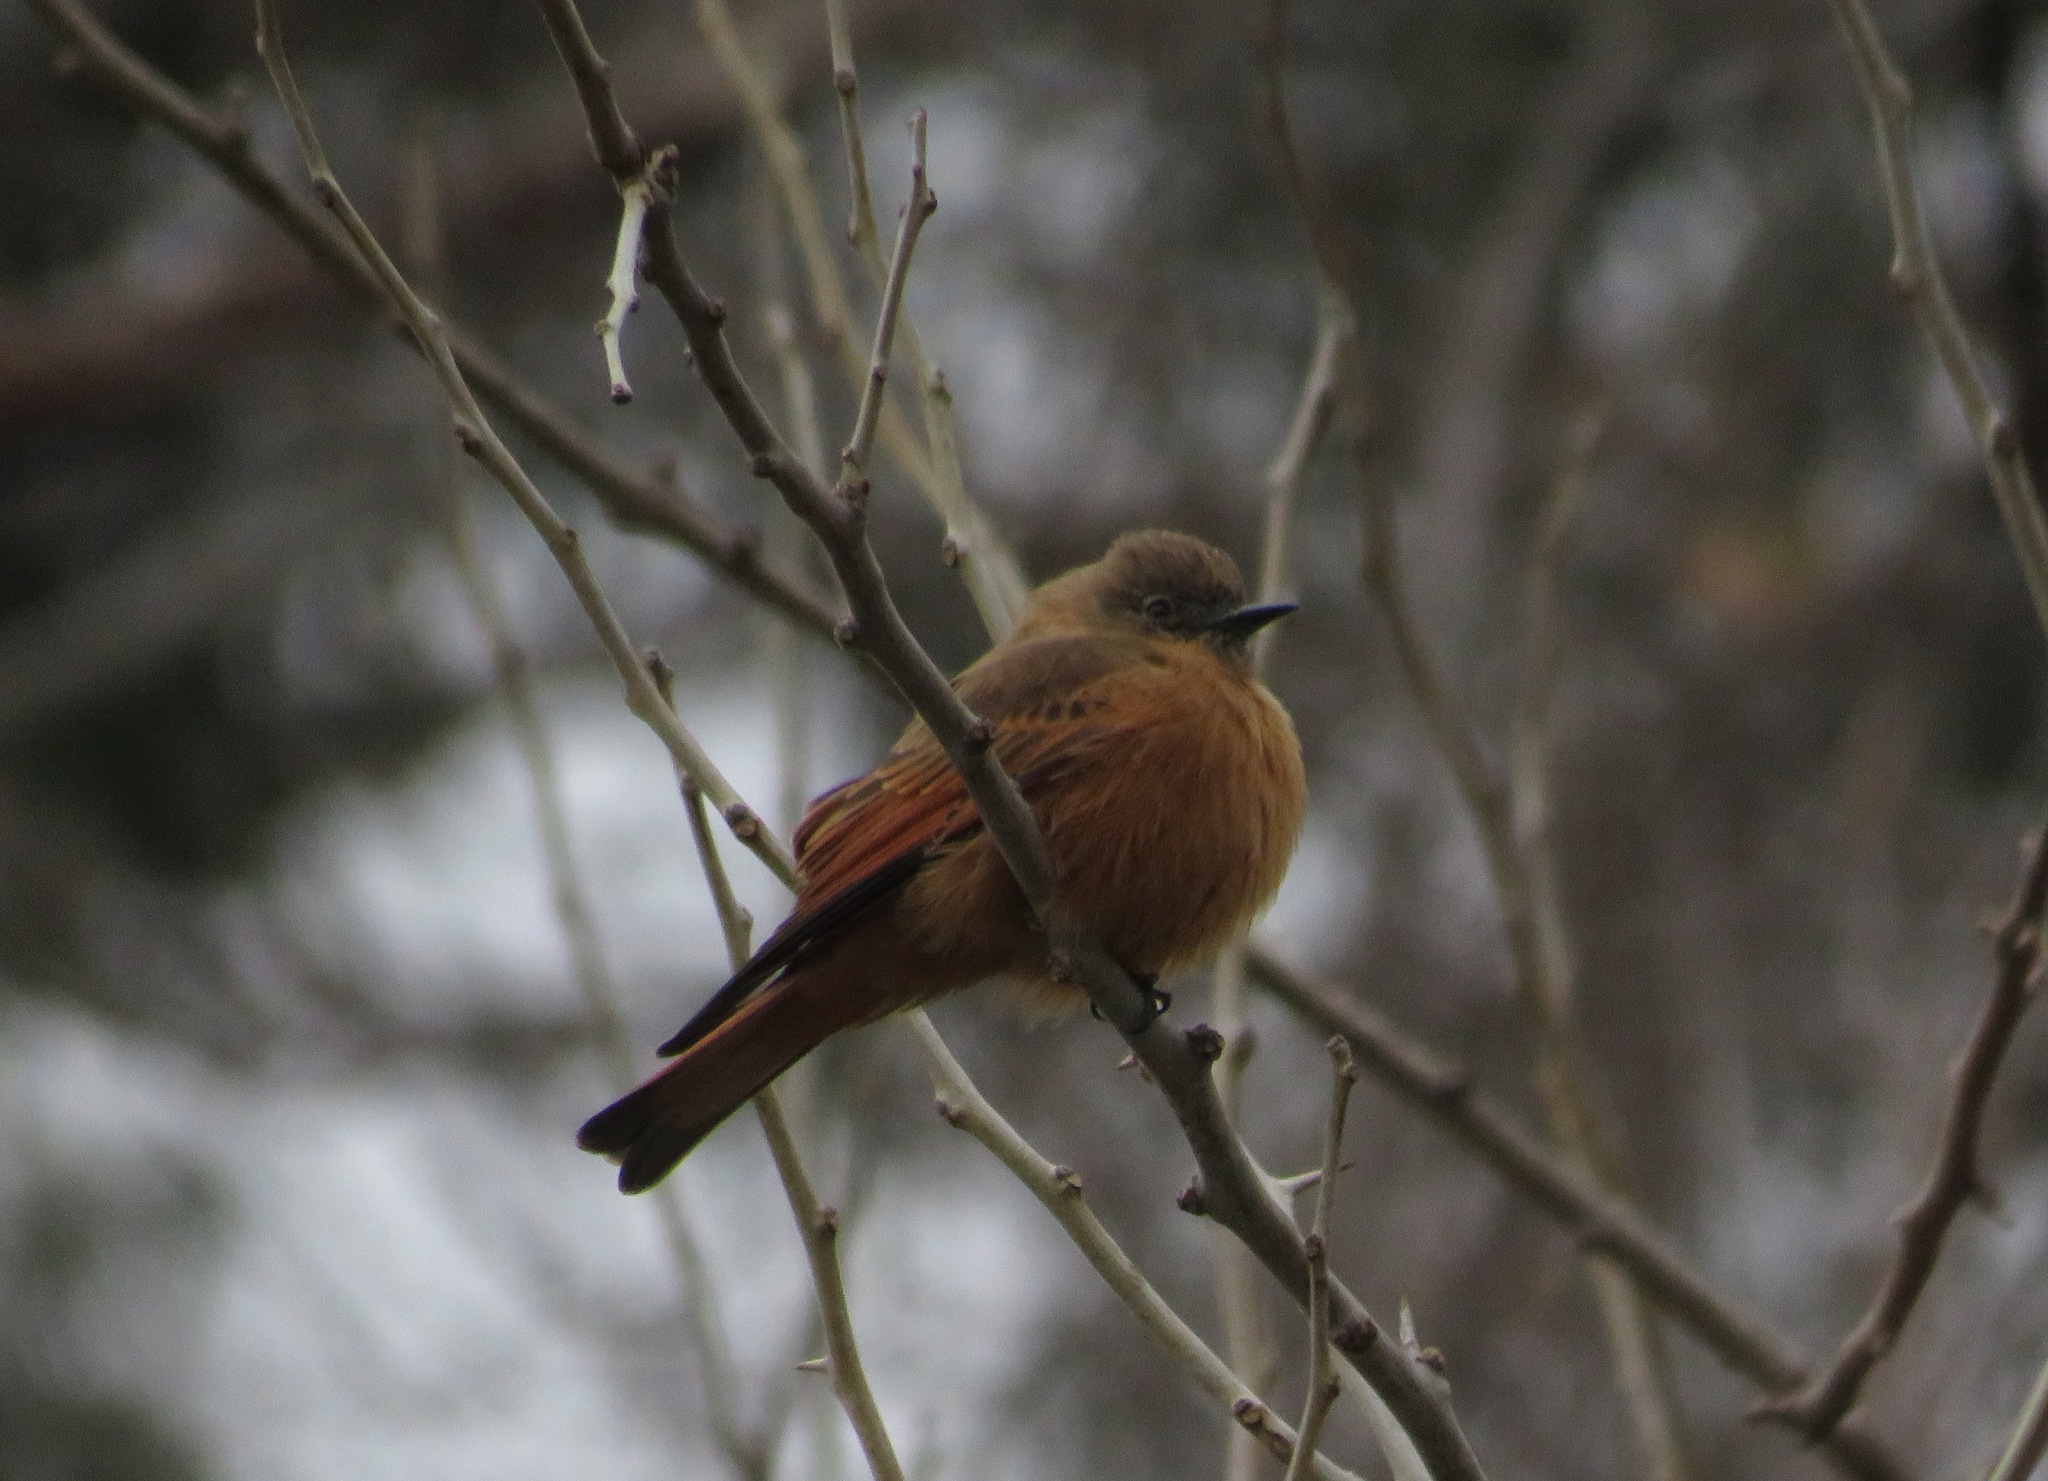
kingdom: Animalia
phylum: Chordata
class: Aves
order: Passeriformes
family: Tyrannidae
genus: Hirundinea
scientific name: Hirundinea ferruginea
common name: Cliff flycatcher
